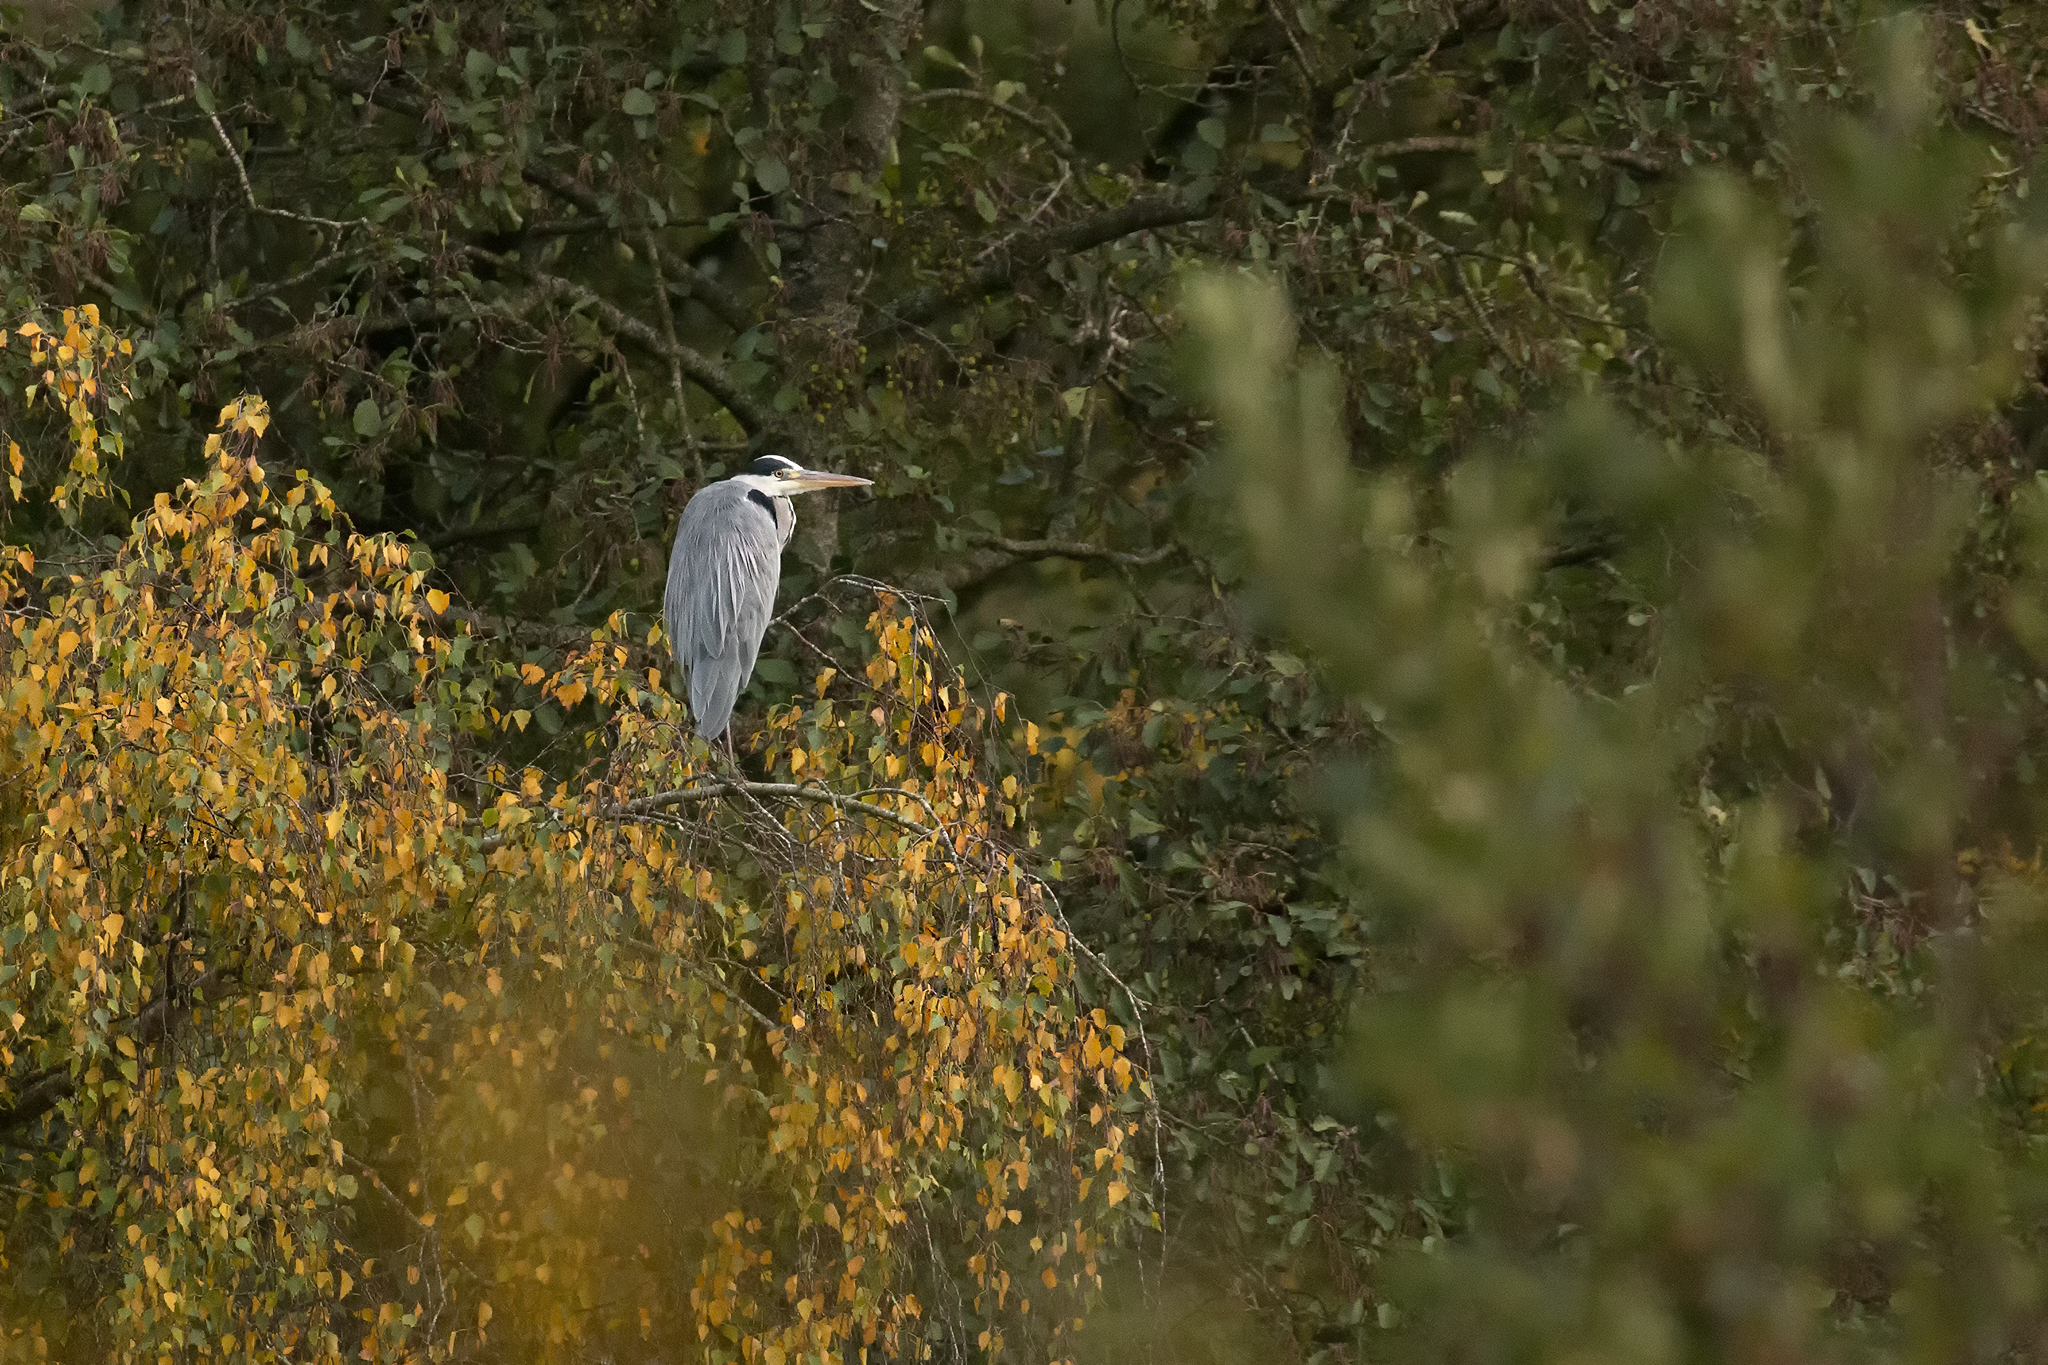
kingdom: Animalia
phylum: Chordata
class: Aves
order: Pelecaniformes
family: Ardeidae
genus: Ardea
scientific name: Ardea cinerea
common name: Grey heron
